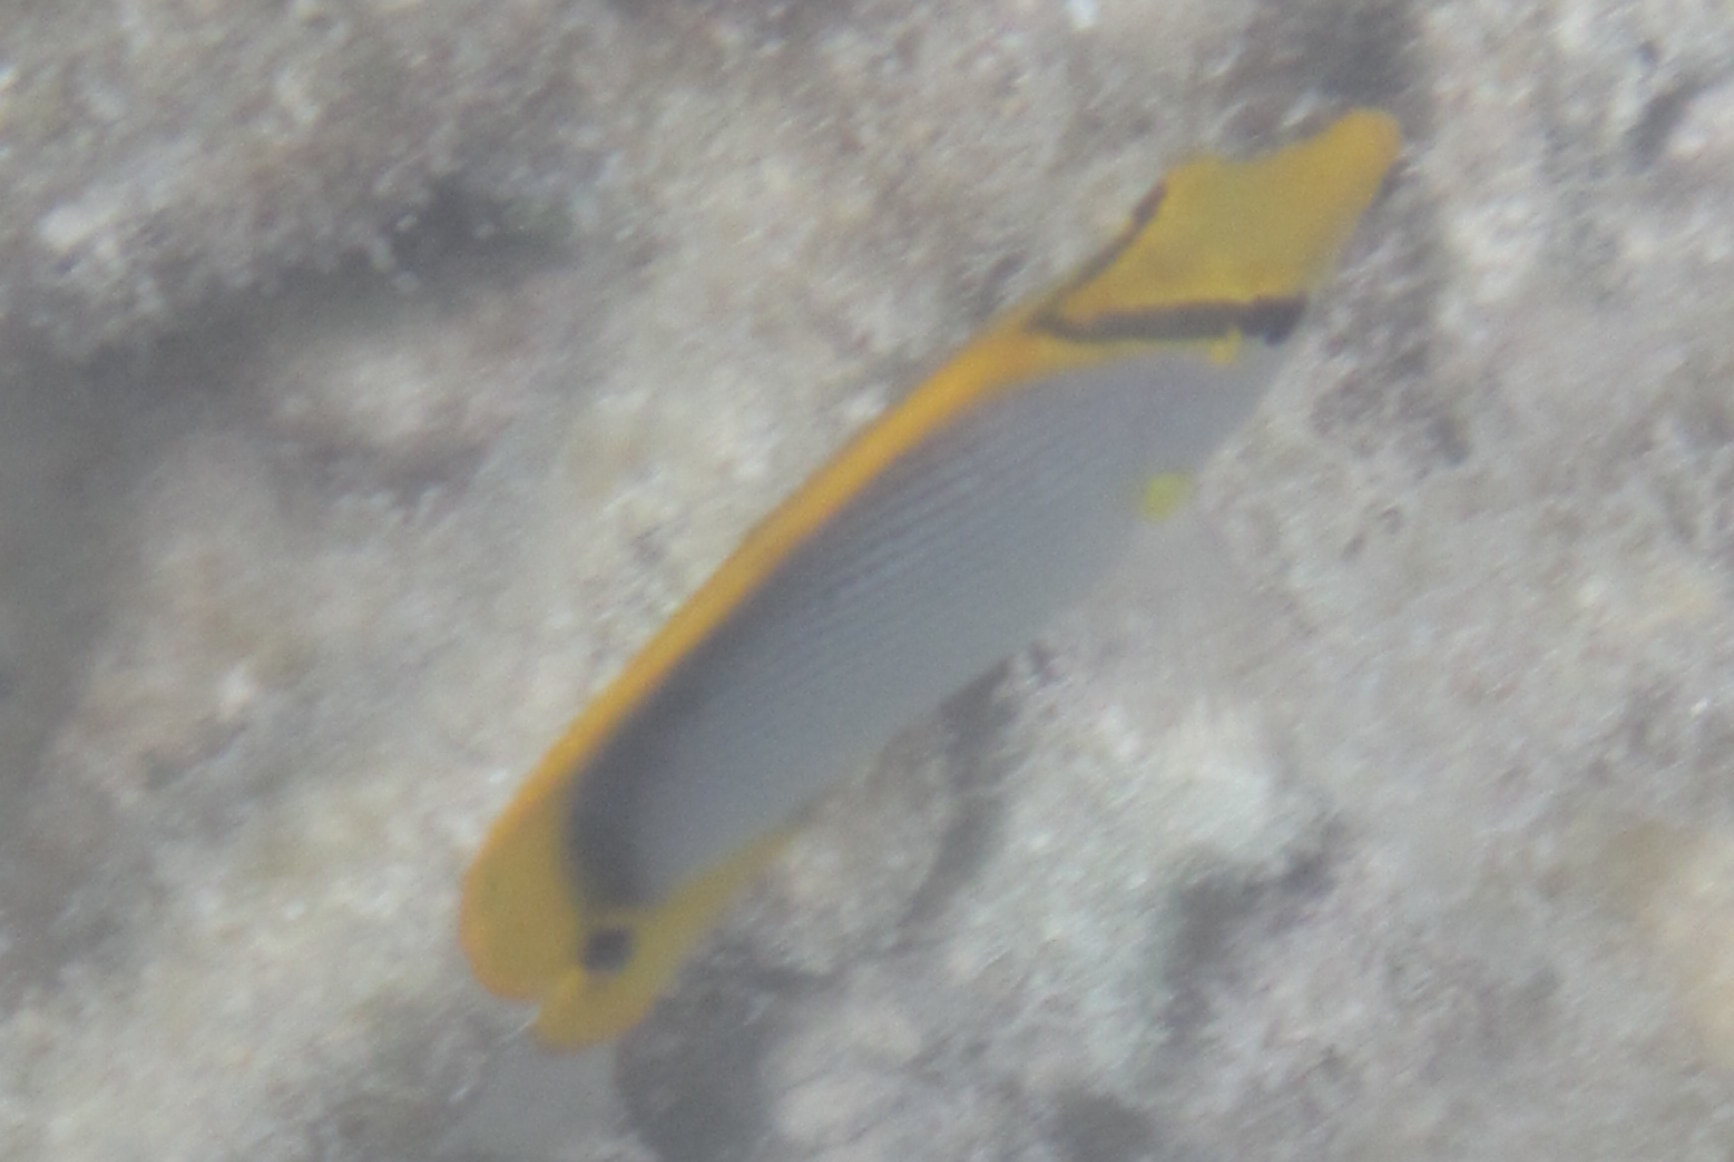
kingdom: Animalia
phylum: Chordata
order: Perciformes
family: Chaetodontidae
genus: Chaetodon
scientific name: Chaetodon melannotus
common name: Blackback butterflyfish
